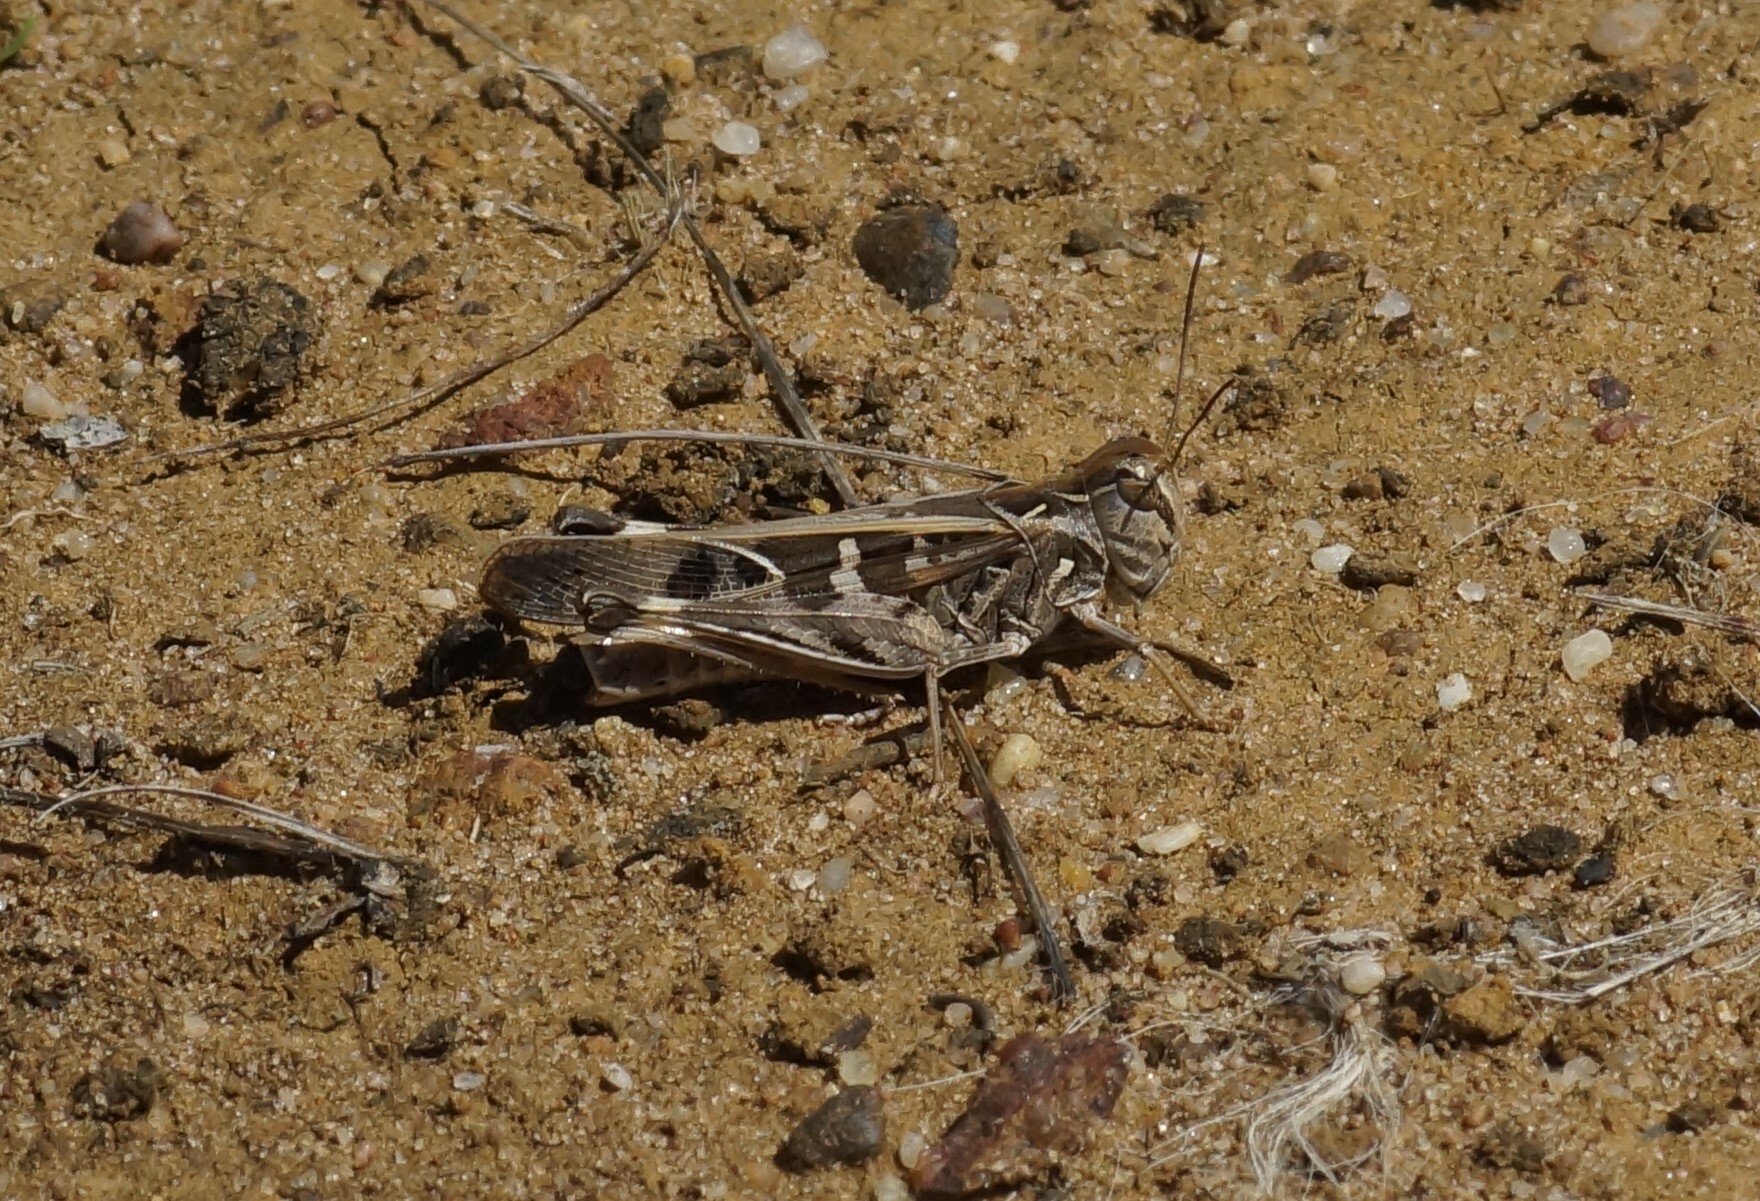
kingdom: Animalia
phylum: Arthropoda
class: Insecta
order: Orthoptera
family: Acrididae
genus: Oedaleus
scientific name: Oedaleus australis
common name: Eastern oedaleus
